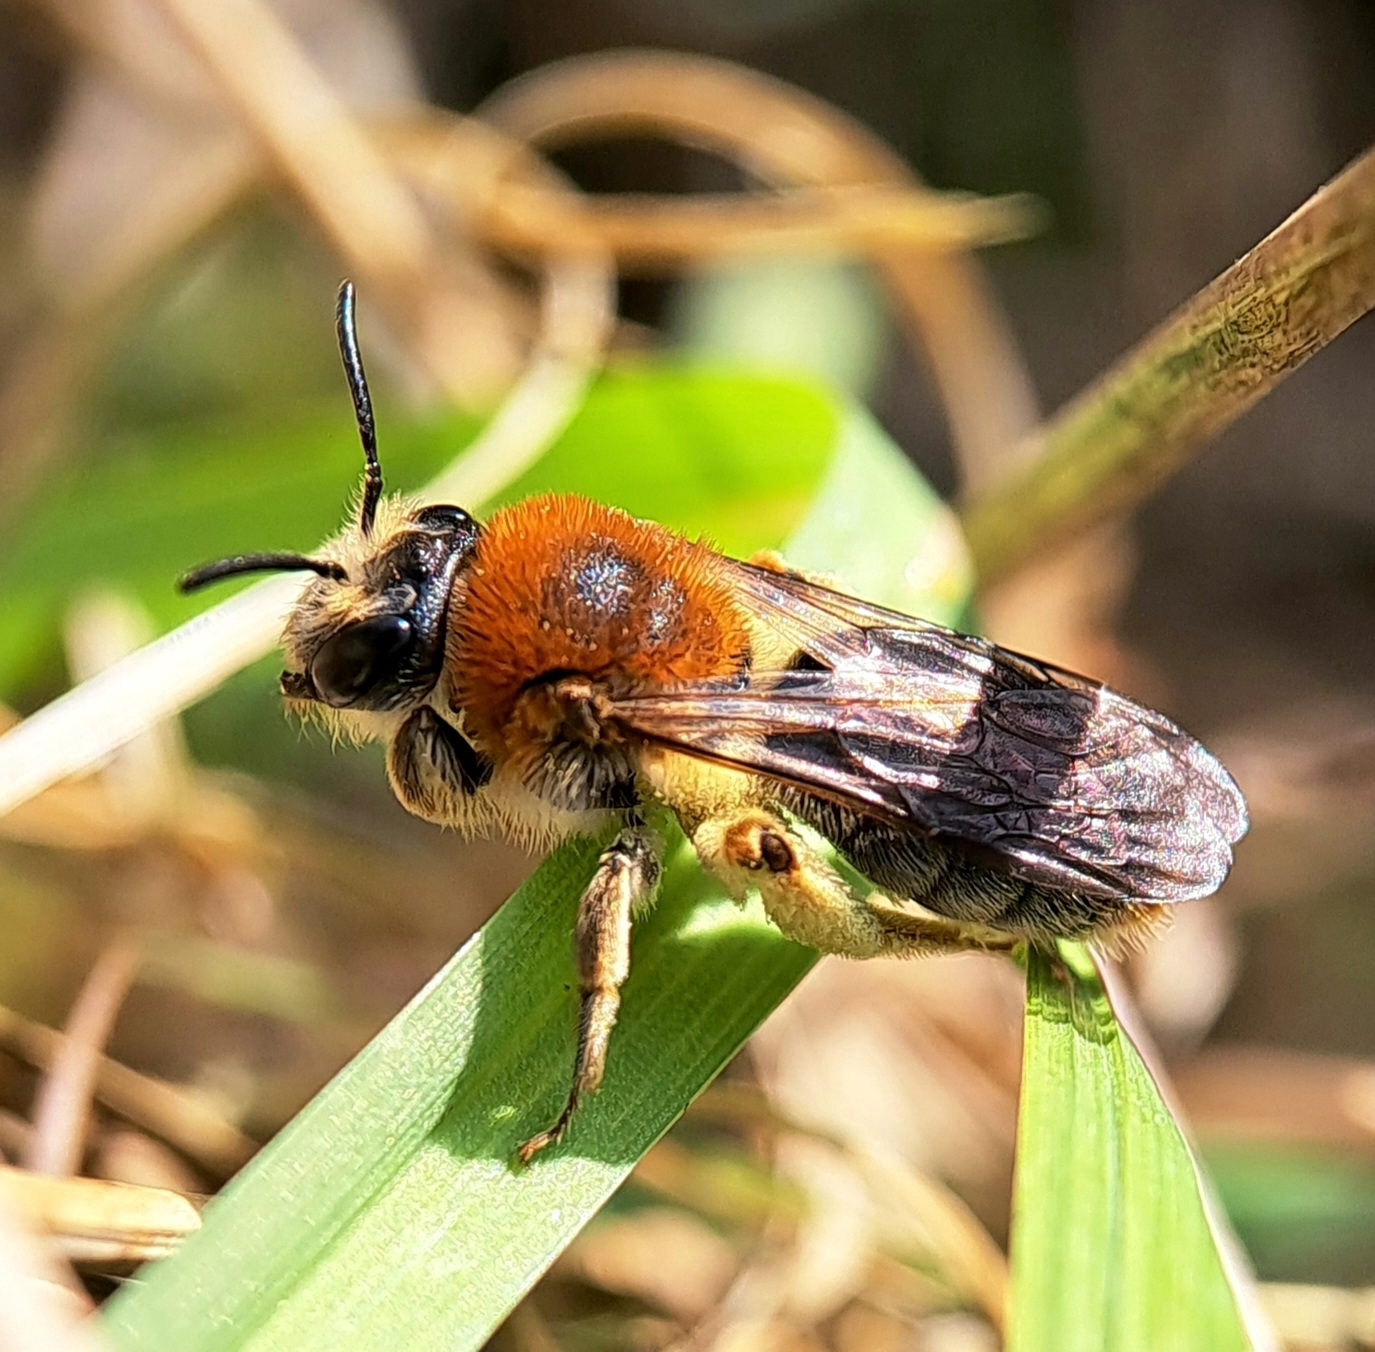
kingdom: Animalia
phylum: Arthropoda
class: Insecta
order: Hymenoptera
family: Andrenidae
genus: Andrena
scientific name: Andrena haemorrhoa
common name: Early mining bee
